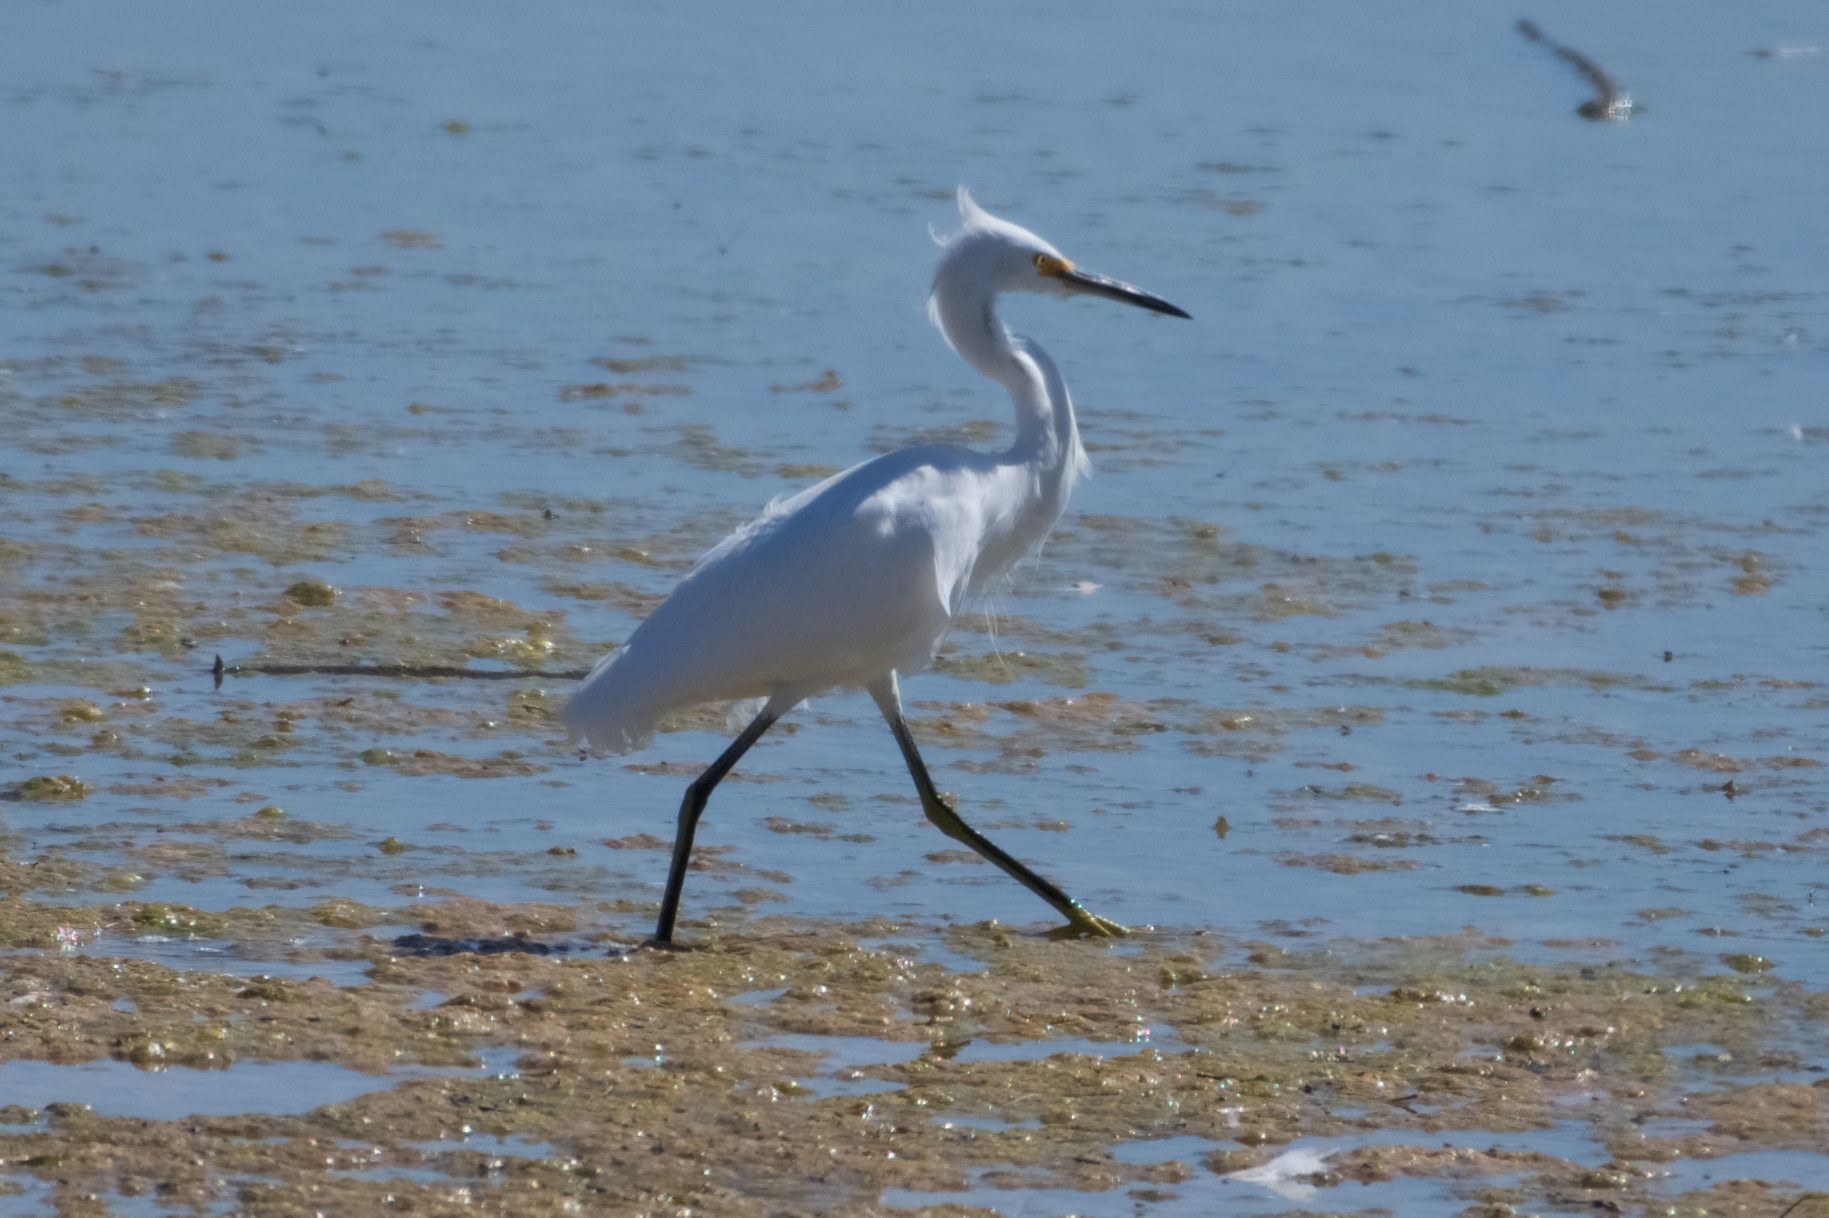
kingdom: Animalia
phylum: Chordata
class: Aves
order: Pelecaniformes
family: Ardeidae
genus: Egretta
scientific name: Egretta thula
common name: Snowy egret
